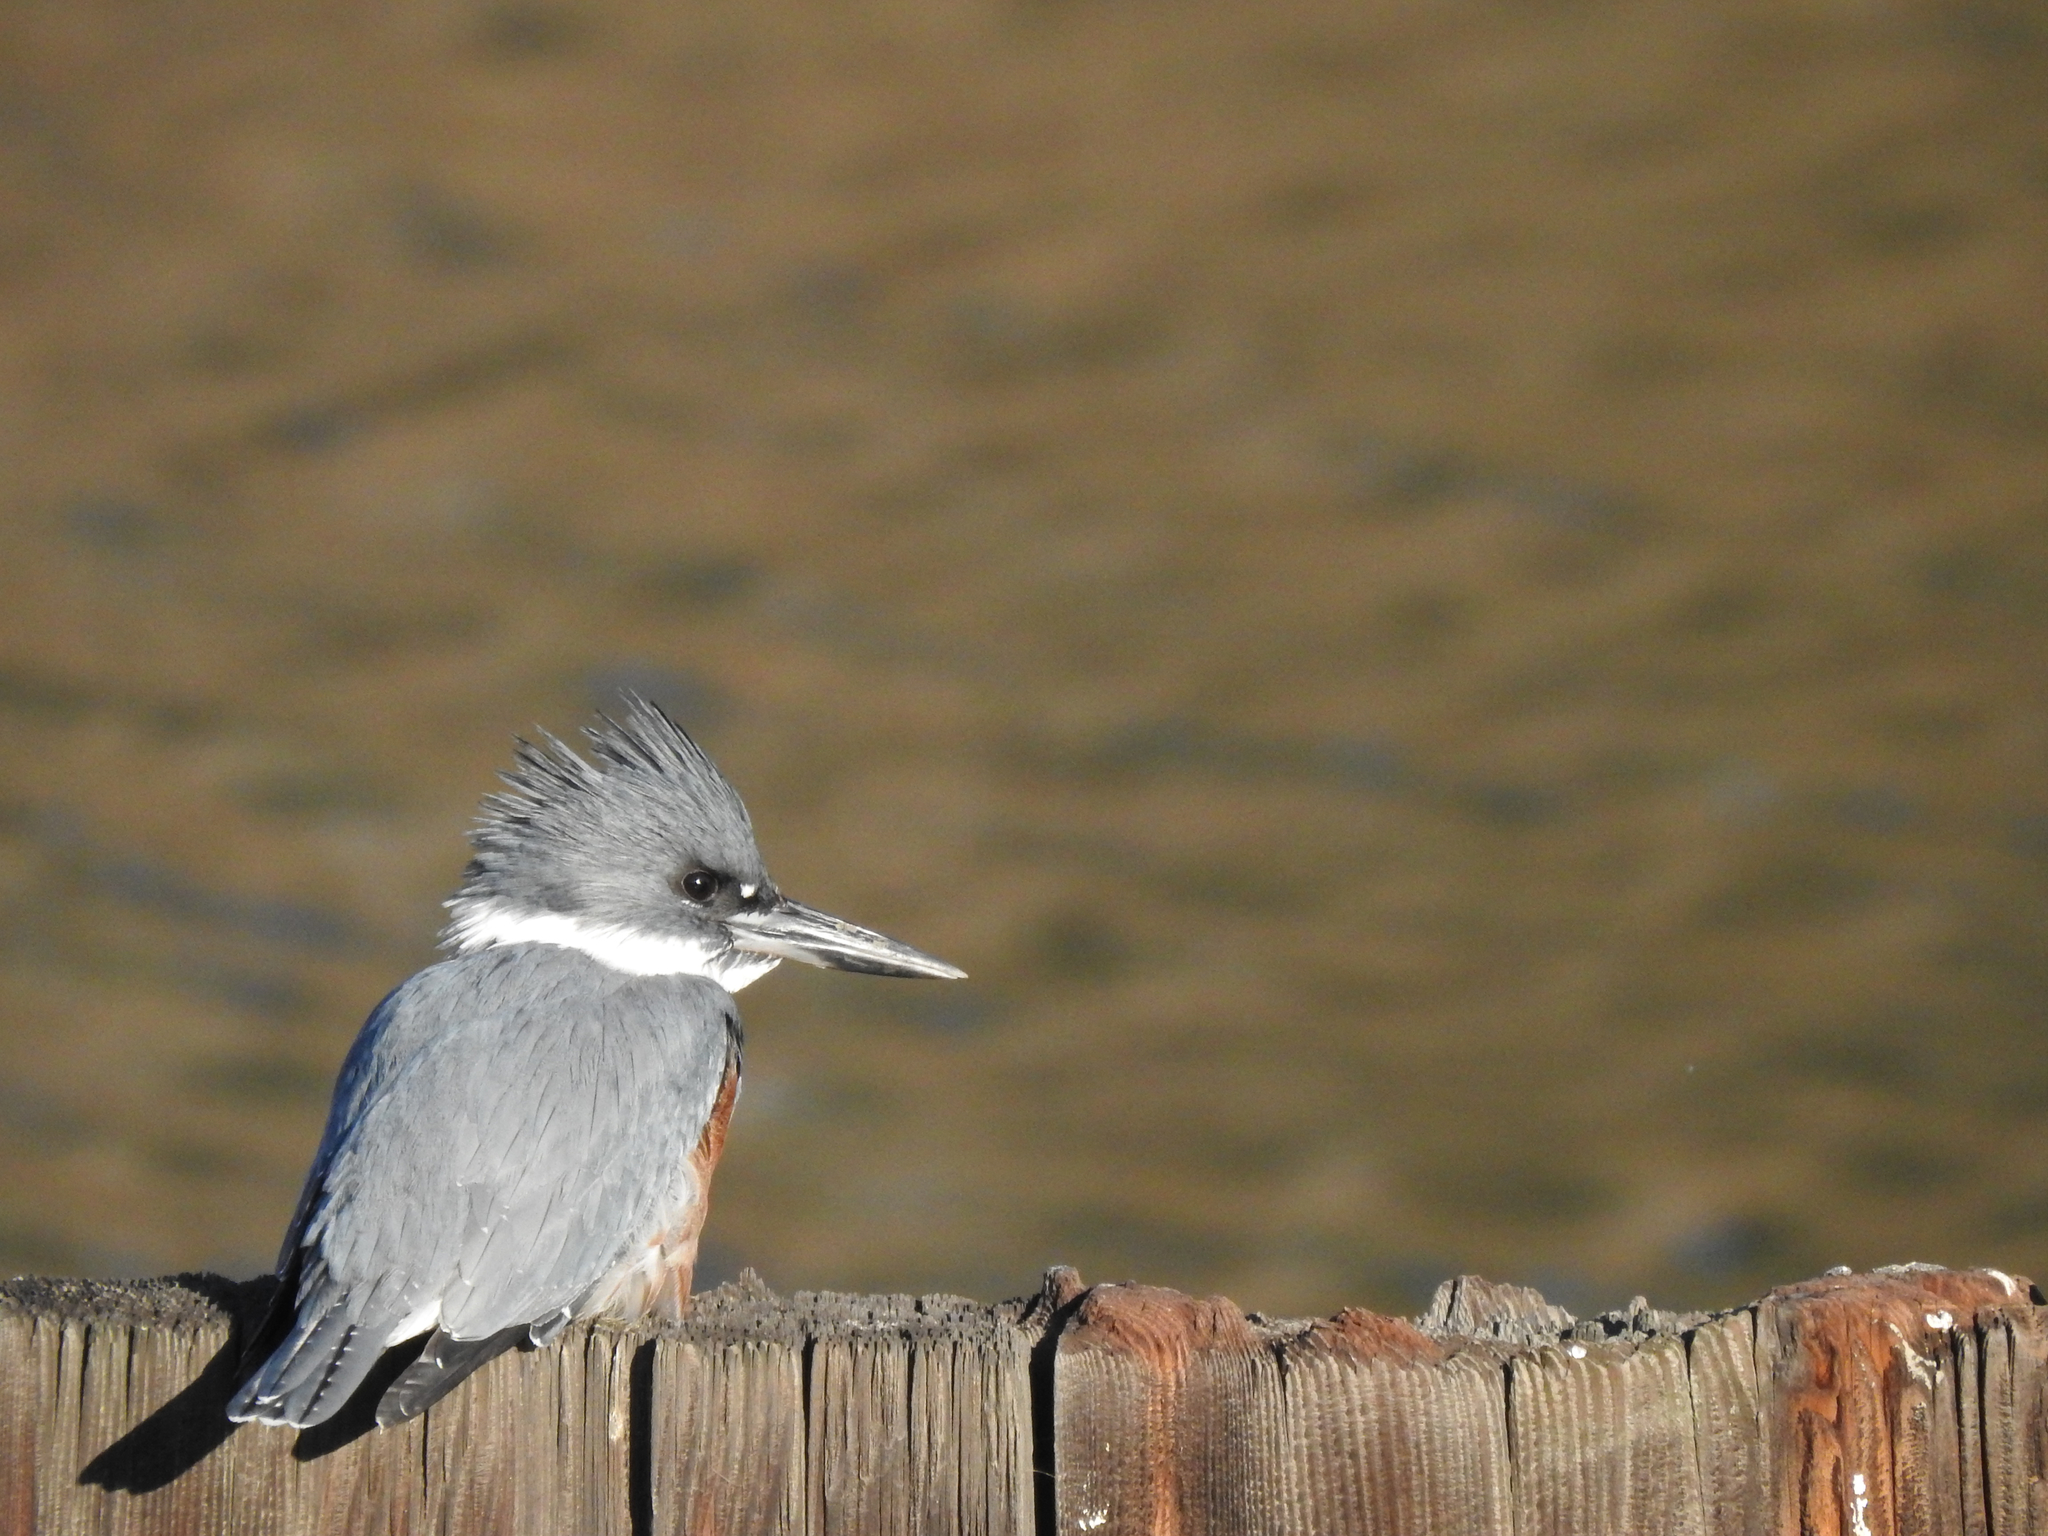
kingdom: Animalia
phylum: Chordata
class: Aves
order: Coraciiformes
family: Alcedinidae
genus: Megaceryle
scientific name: Megaceryle alcyon
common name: Belted kingfisher
